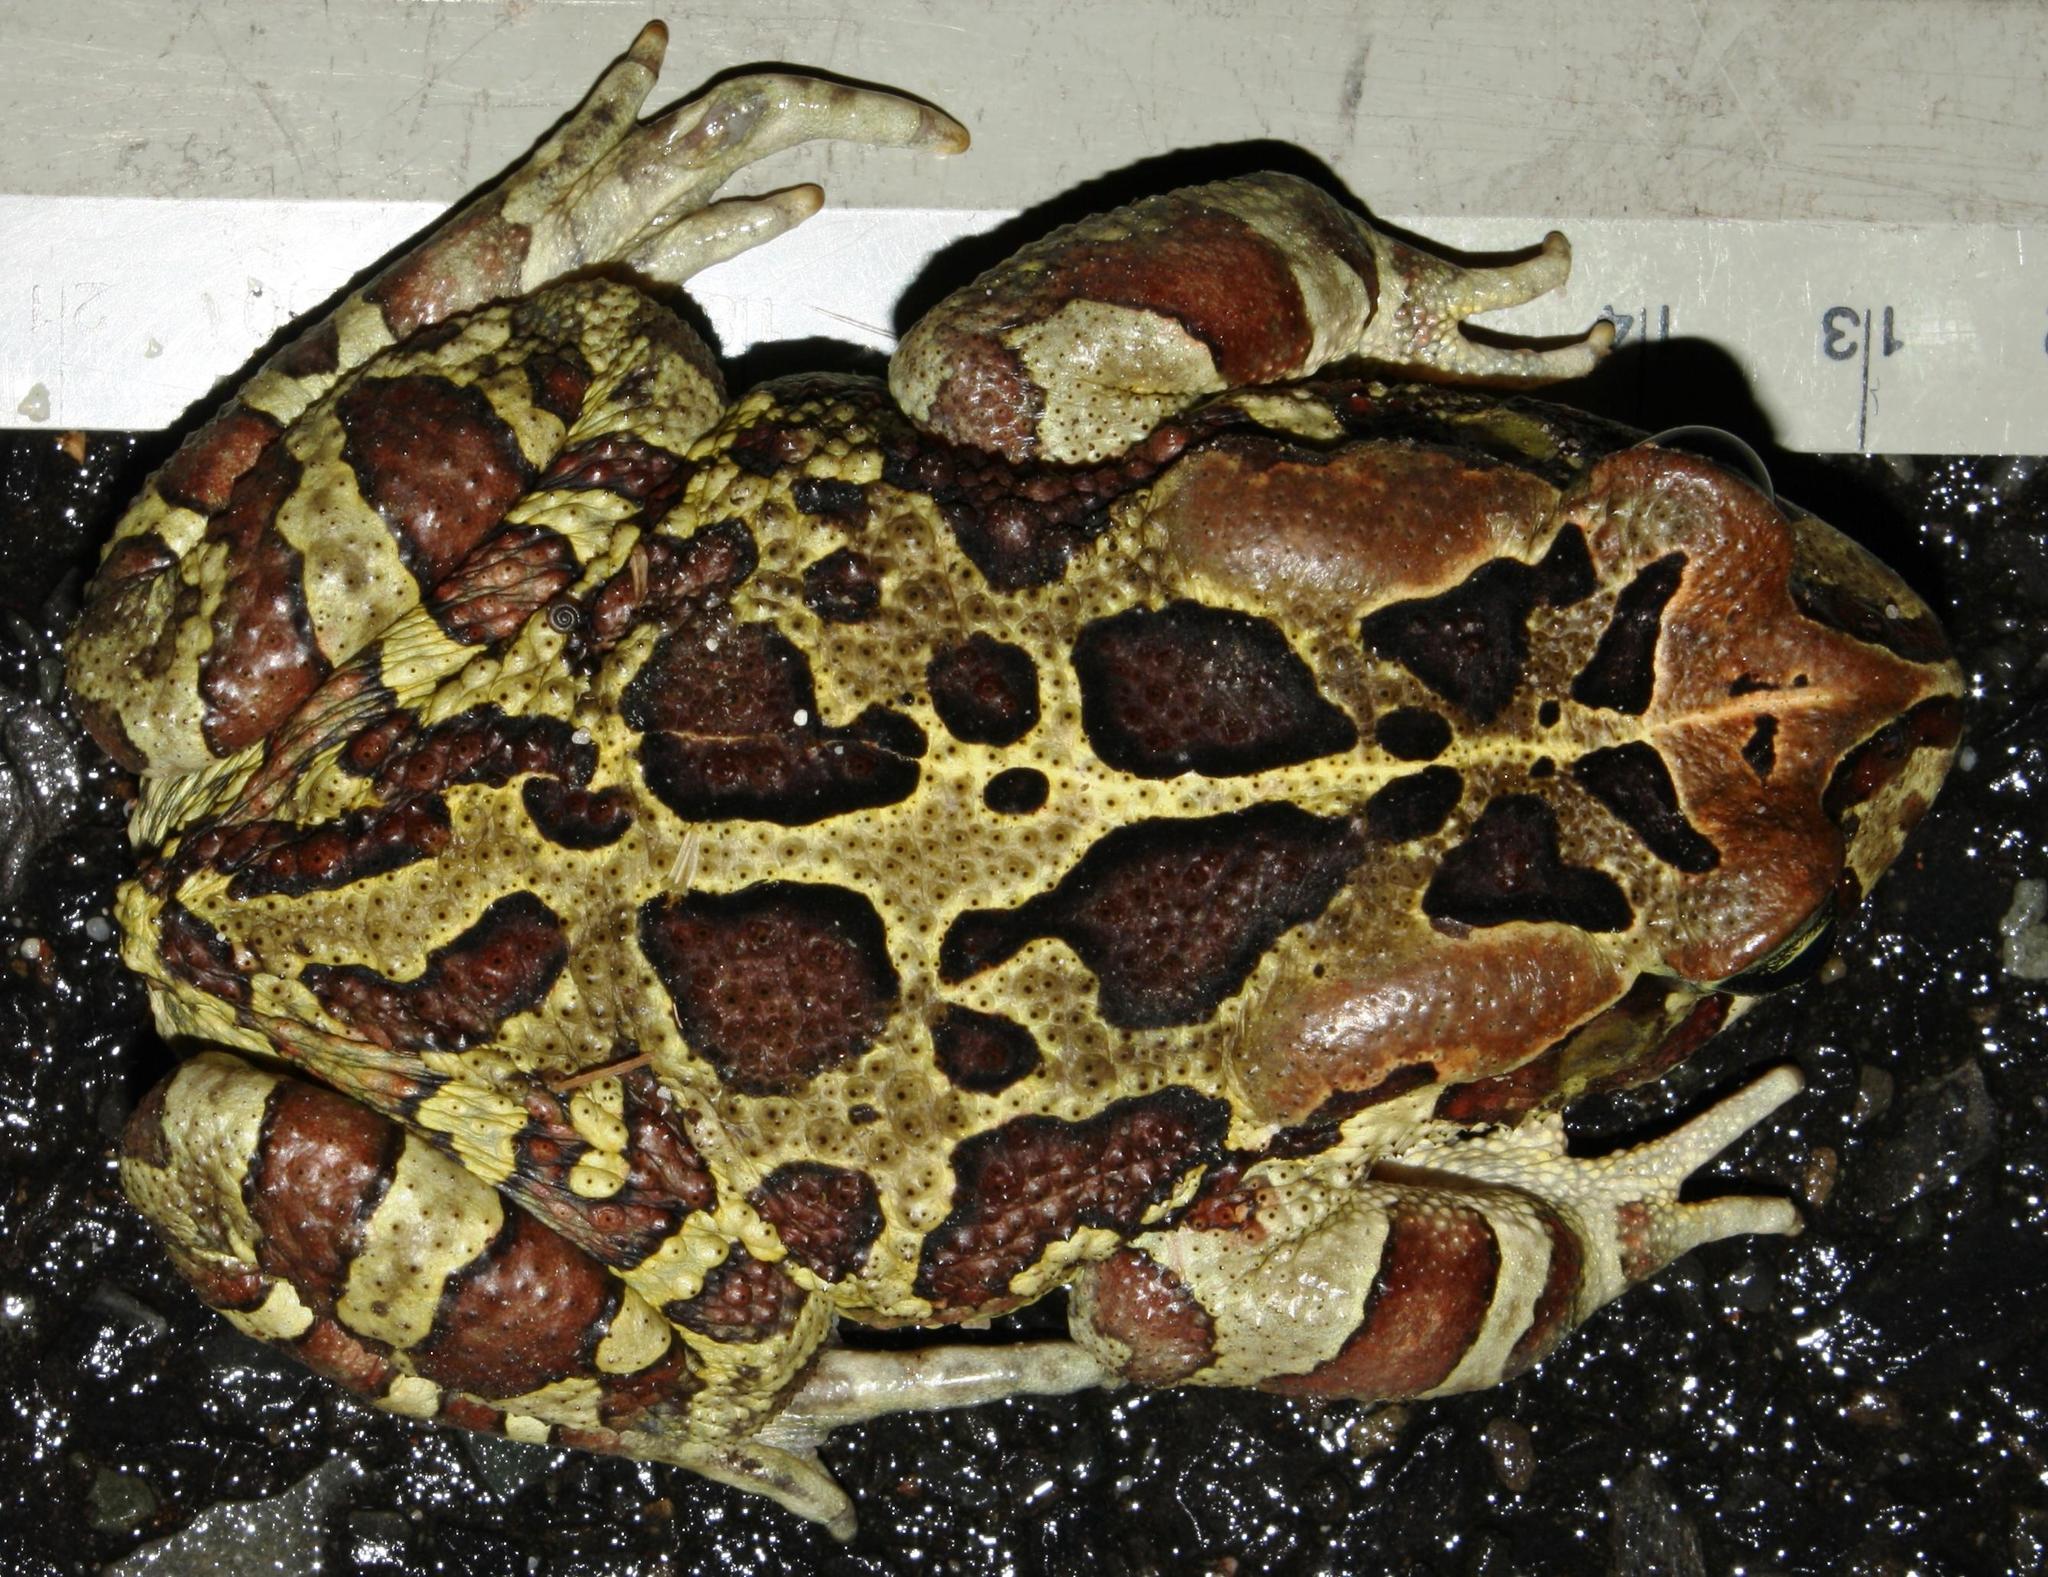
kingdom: Animalia
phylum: Chordata
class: Amphibia
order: Anura
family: Bufonidae
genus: Sclerophrys
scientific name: Sclerophrys pantherina
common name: Panther toad
